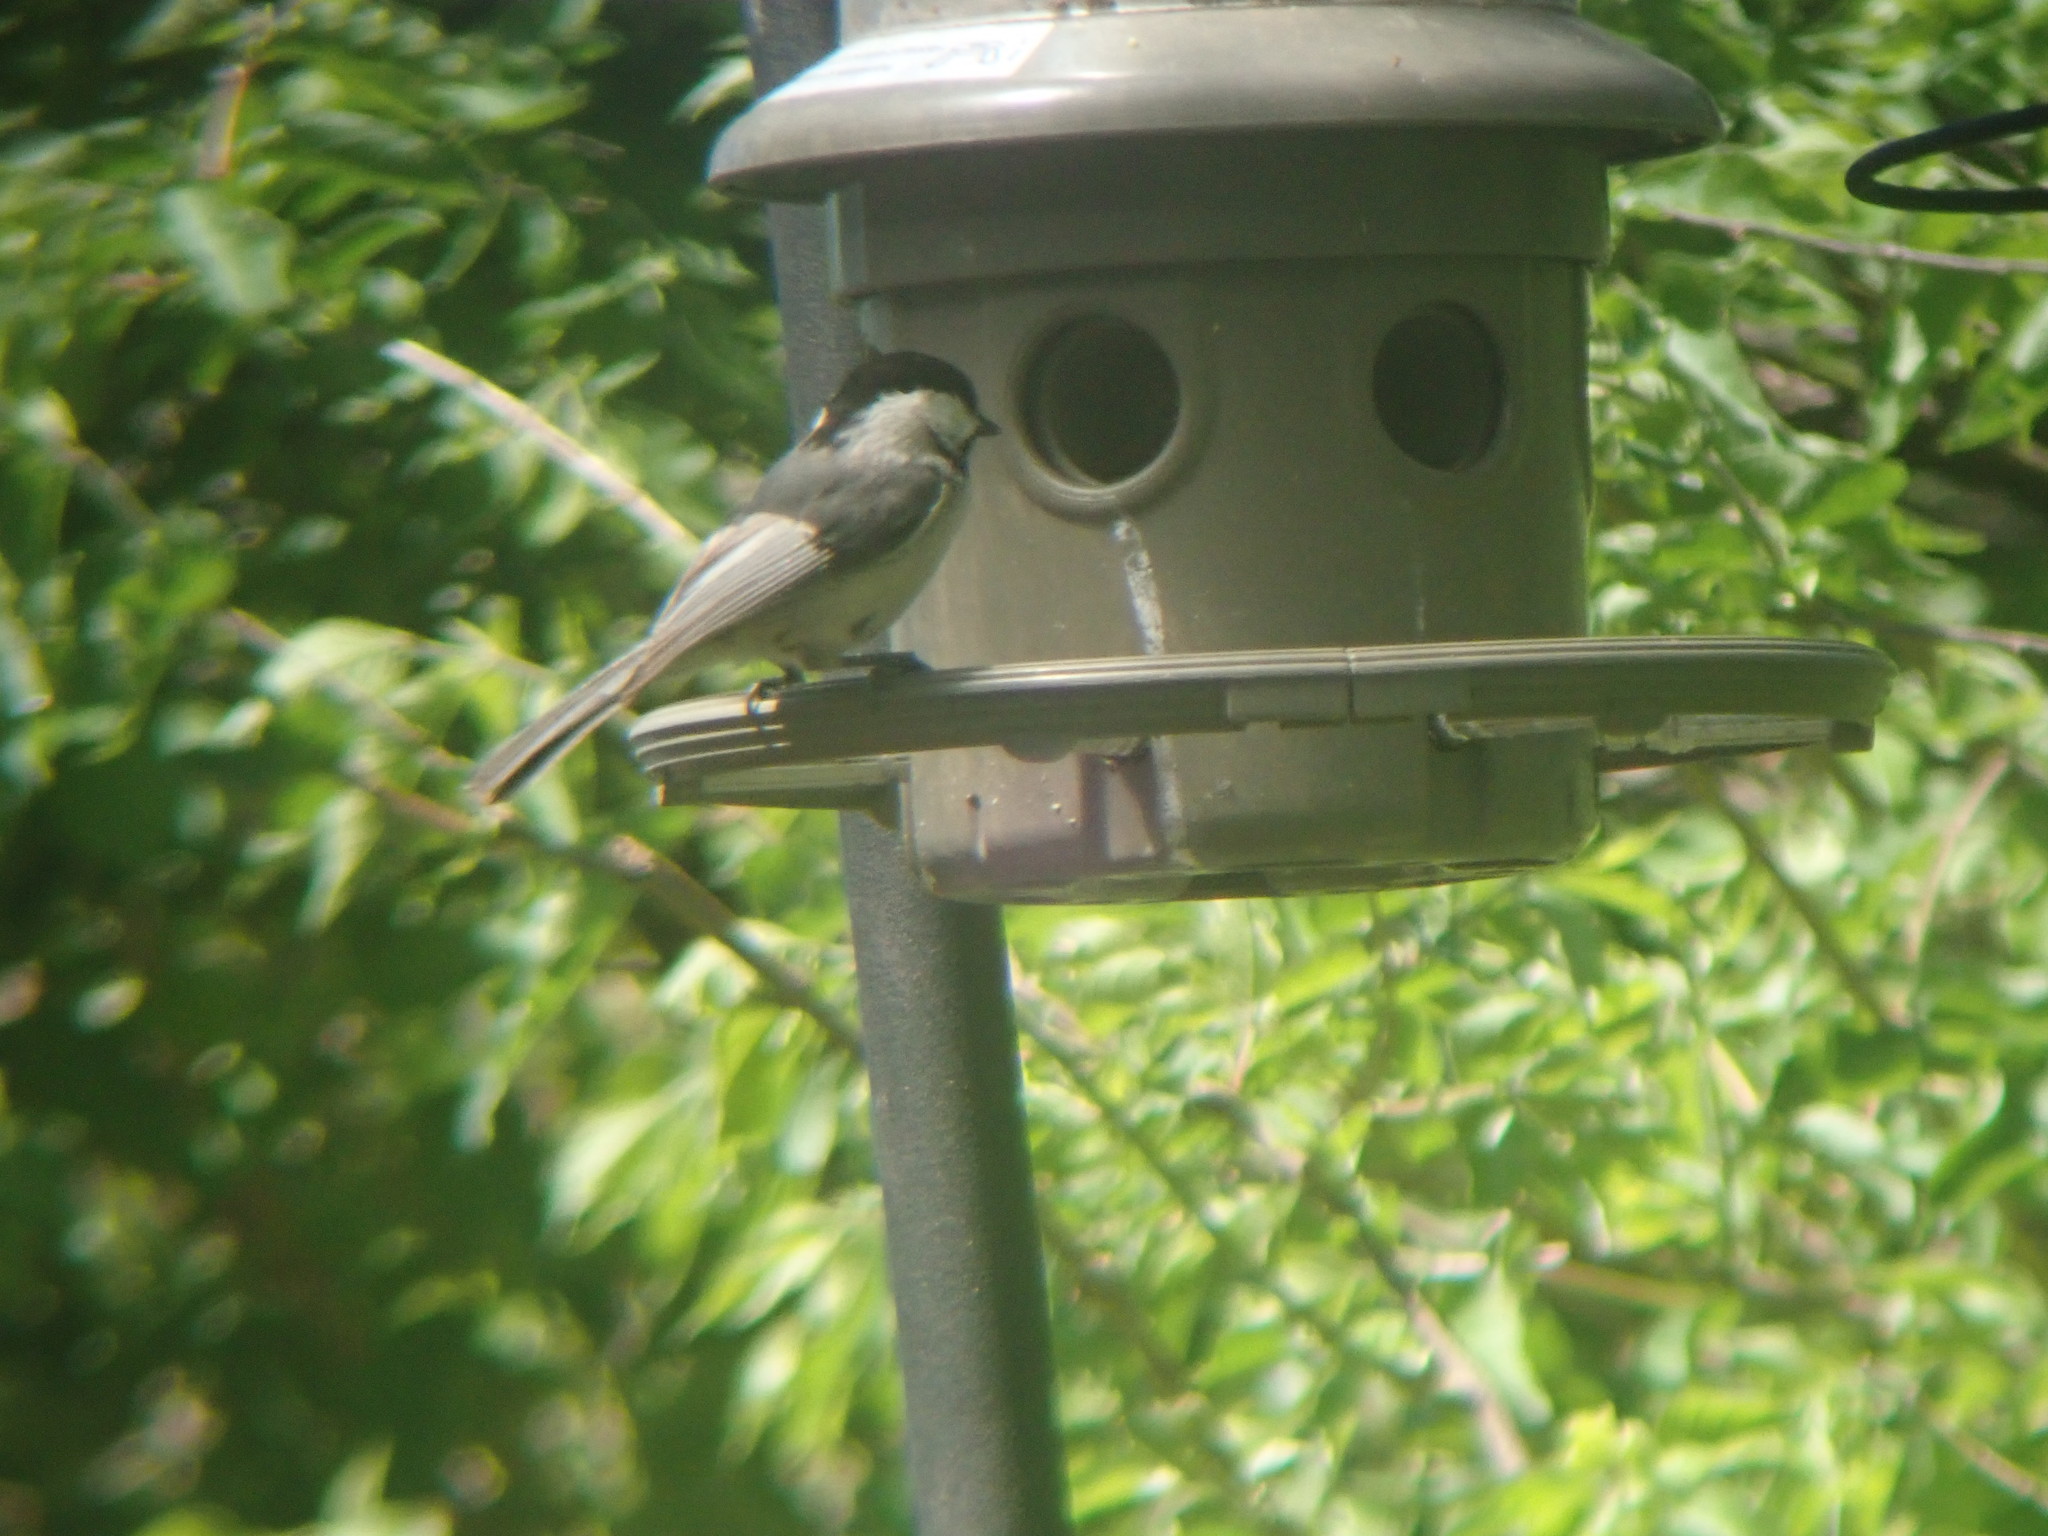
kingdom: Animalia
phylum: Chordata
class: Aves
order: Passeriformes
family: Paridae
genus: Poecile
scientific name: Poecile carolinensis
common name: Carolina chickadee
